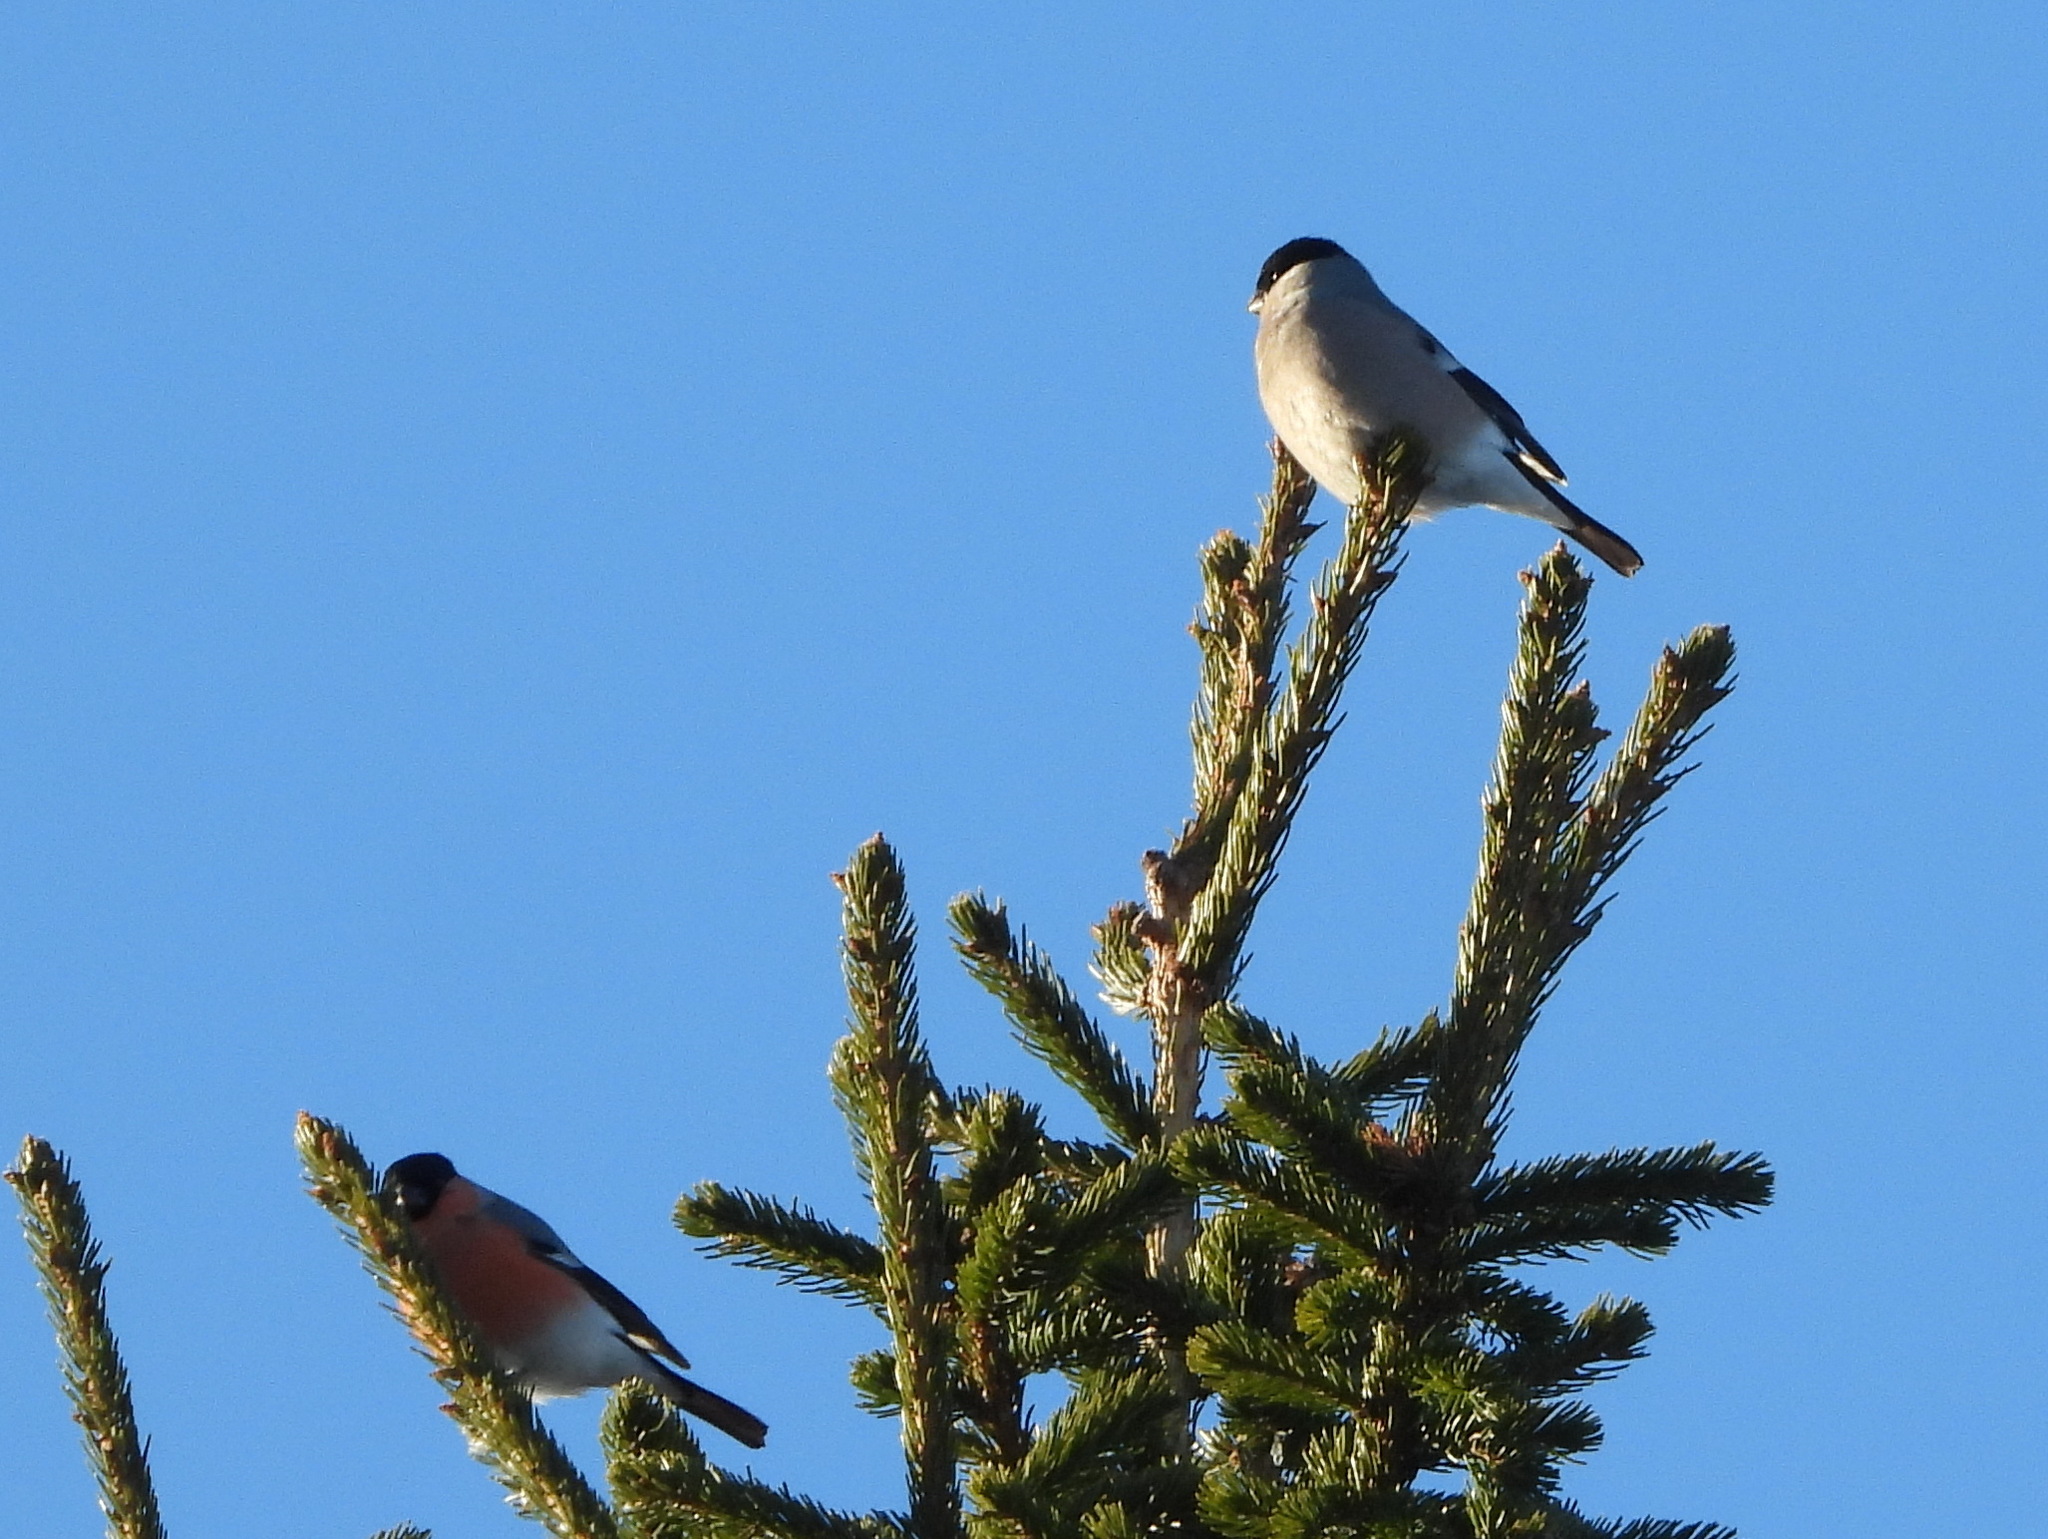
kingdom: Animalia
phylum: Chordata
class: Aves
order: Passeriformes
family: Fringillidae
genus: Pyrrhula
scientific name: Pyrrhula pyrrhula
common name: Eurasian bullfinch
